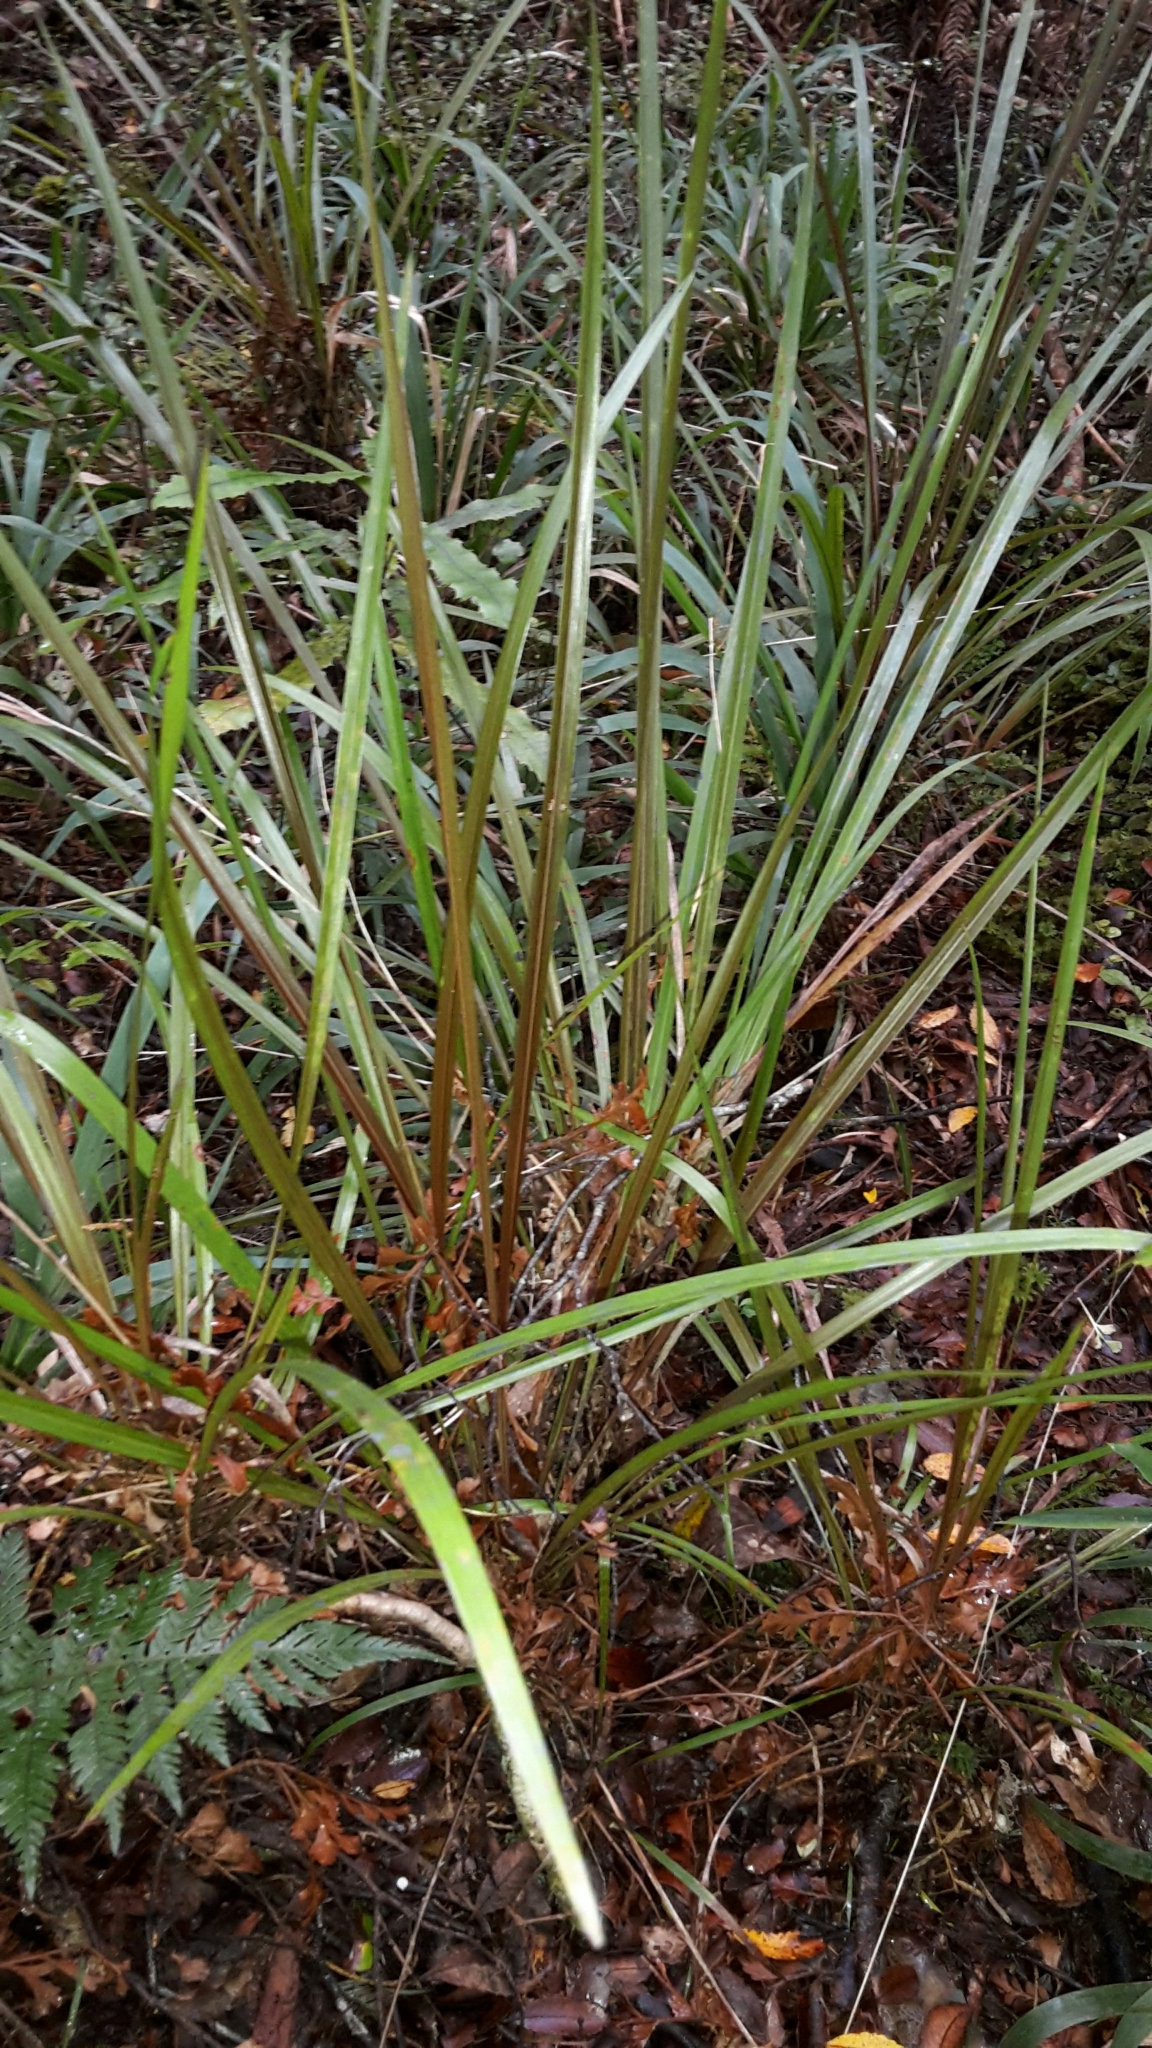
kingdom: Plantae
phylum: Tracheophyta
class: Liliopsida
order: Asparagales
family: Asparagaceae
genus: Cordyline
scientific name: Cordyline pumilio
